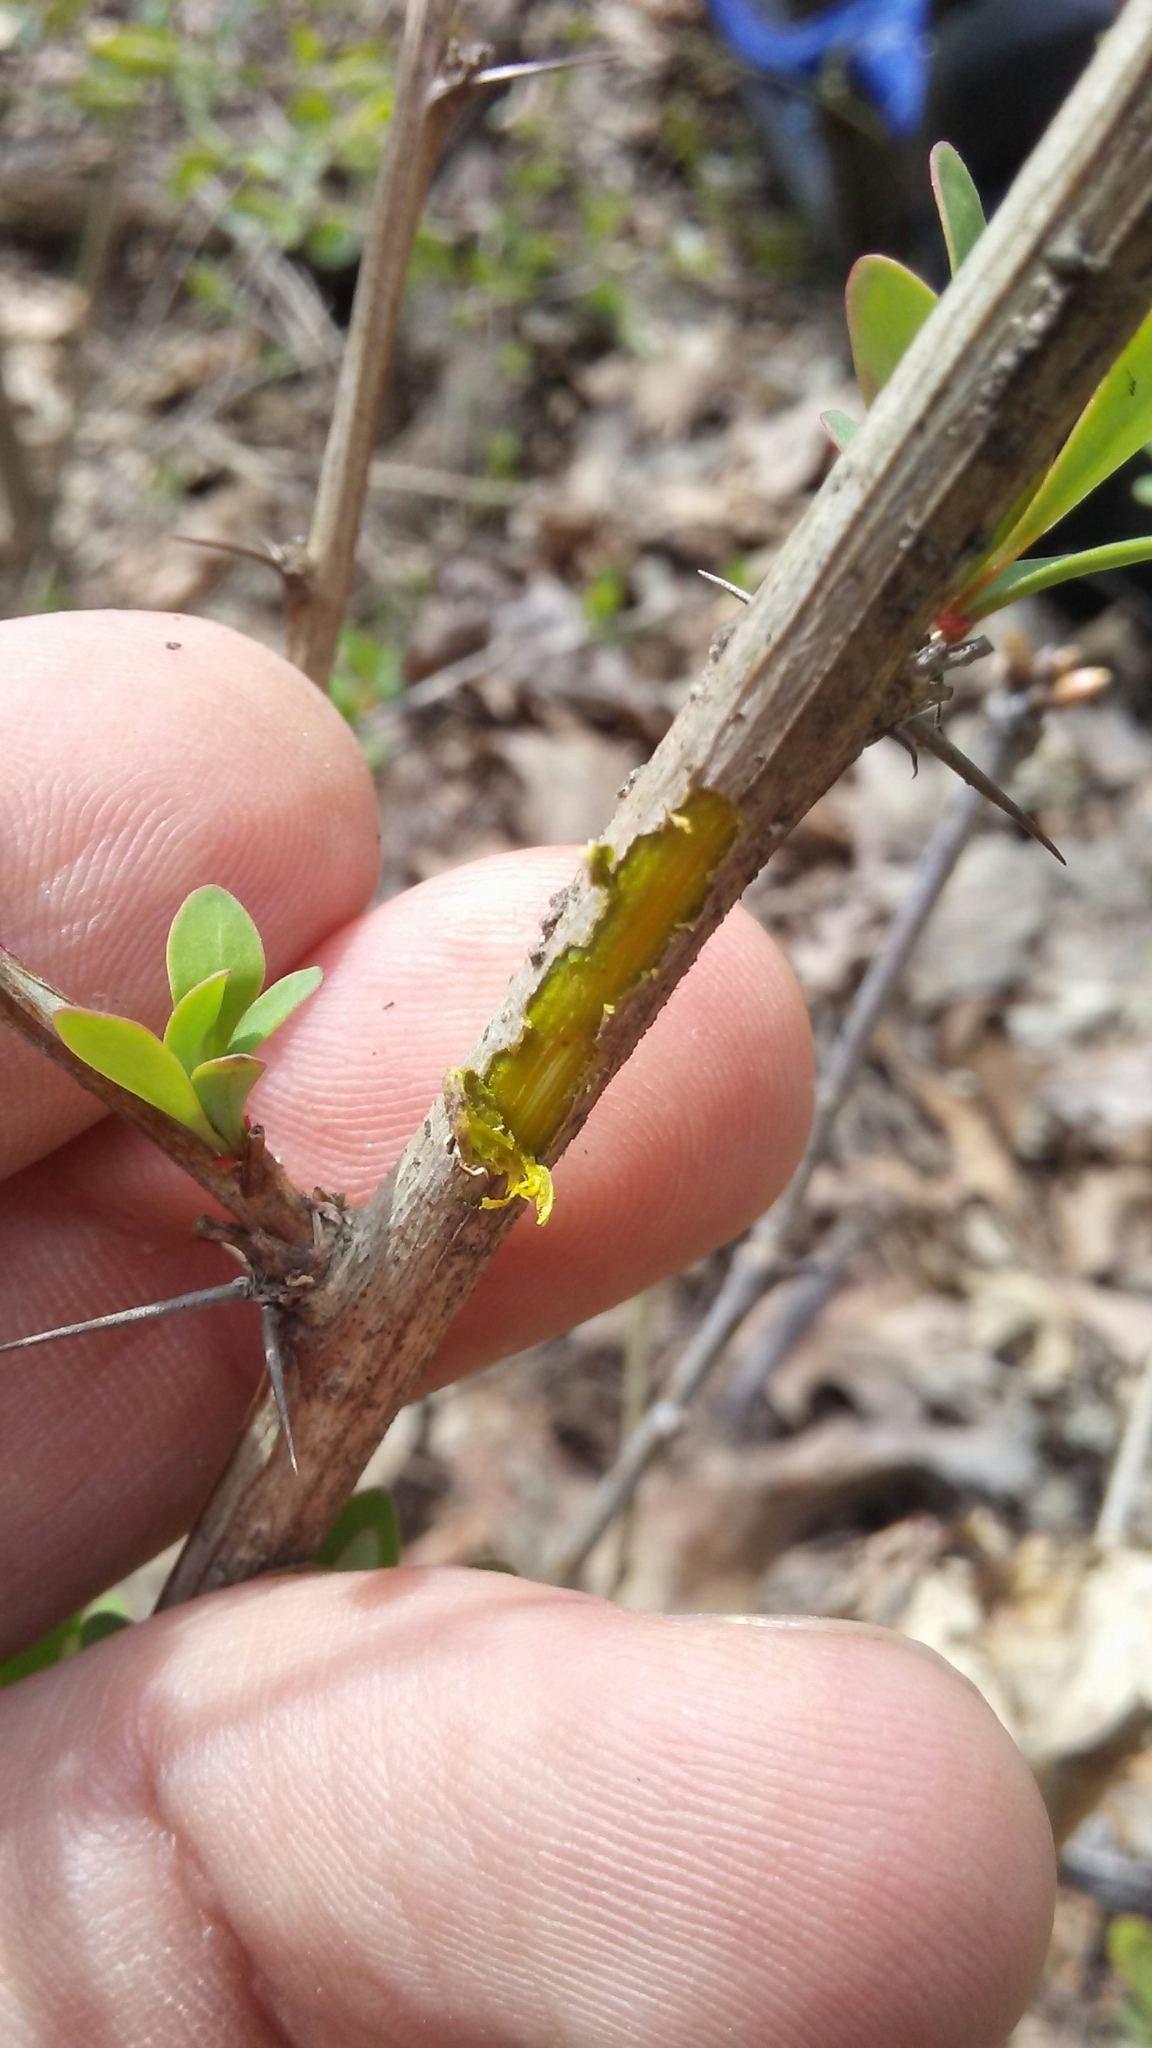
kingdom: Plantae
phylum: Tracheophyta
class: Magnoliopsida
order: Ranunculales
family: Berberidaceae
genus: Berberis
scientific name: Berberis thunbergii
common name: Japanese barberry
